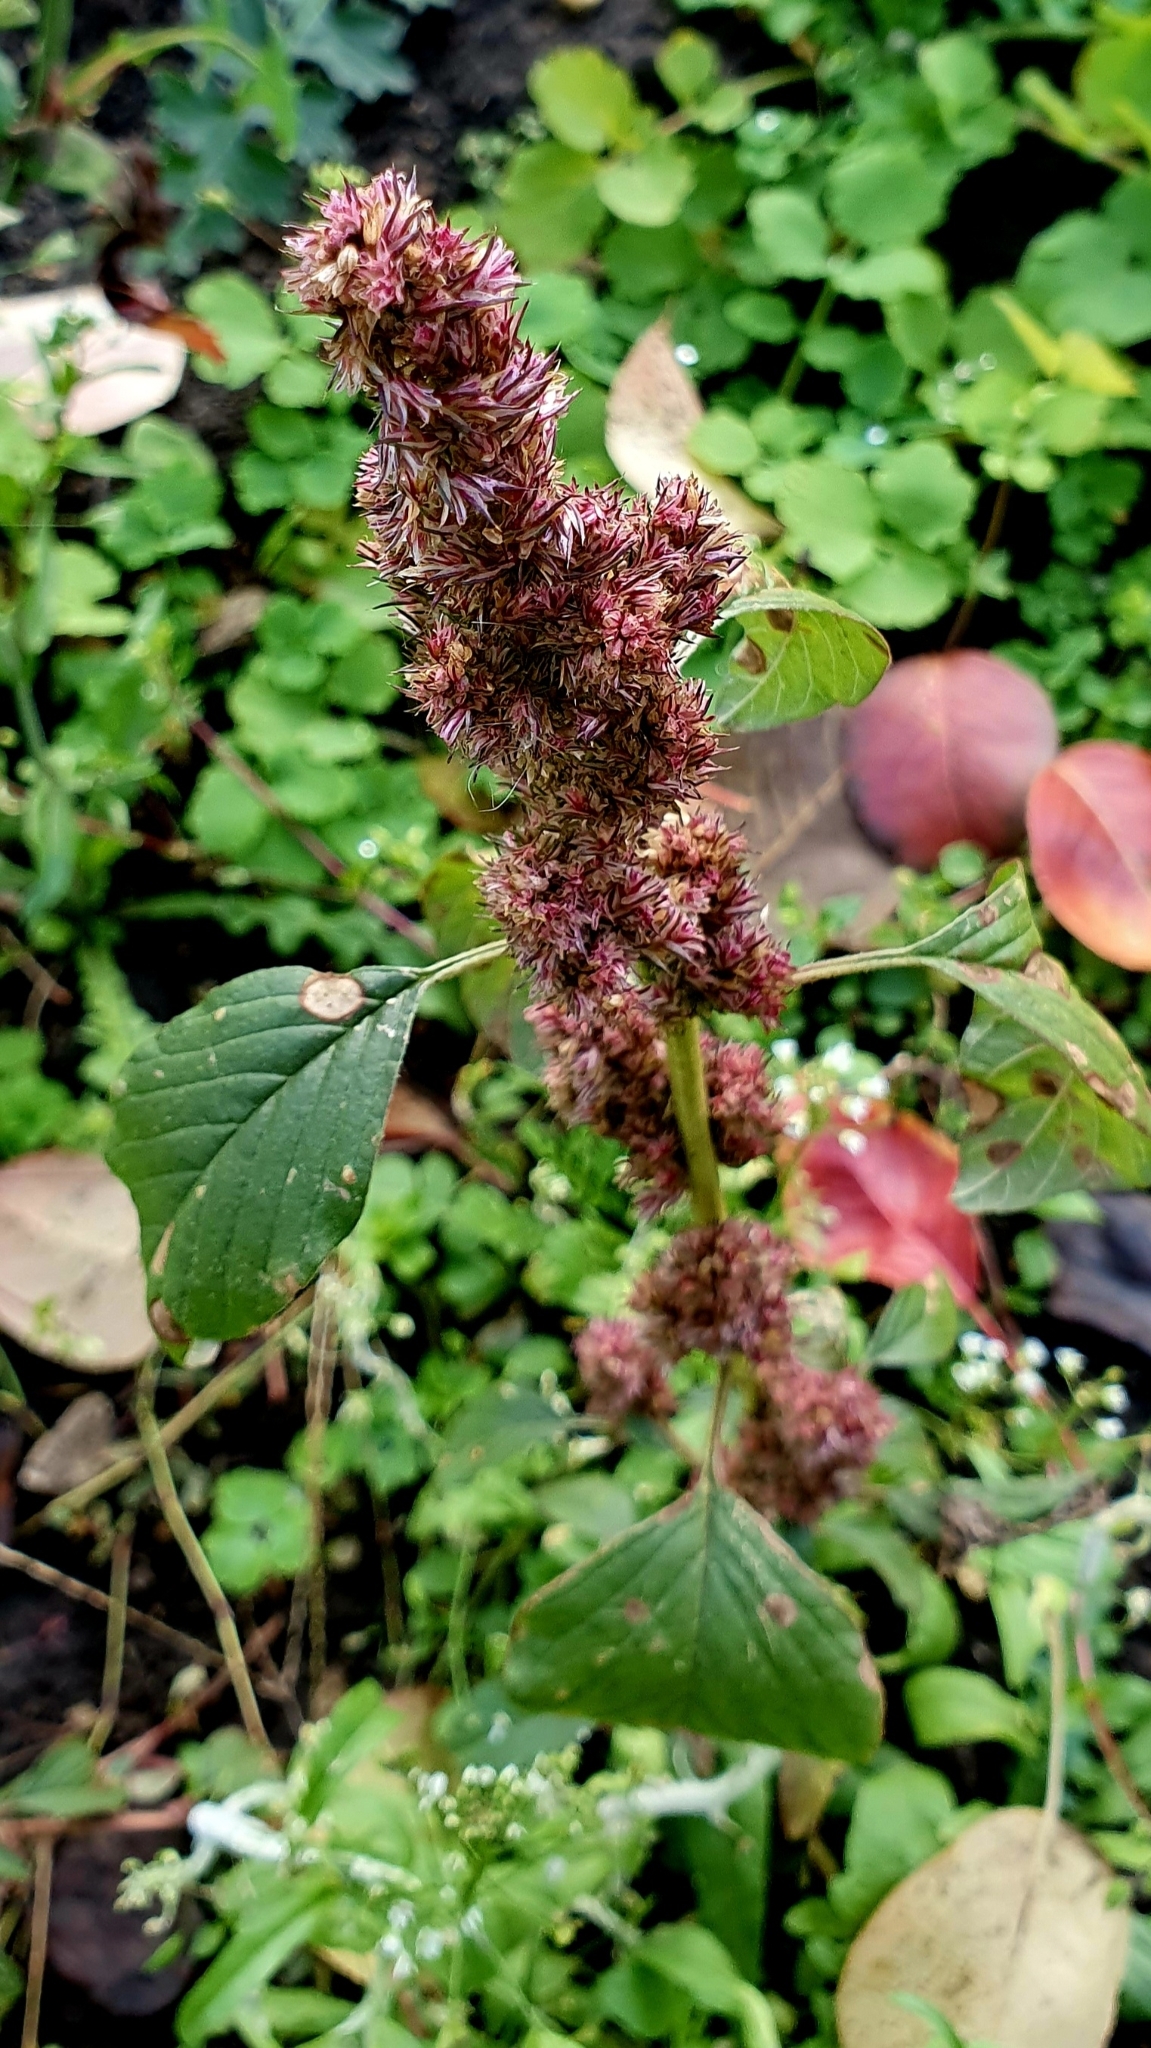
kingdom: Plantae
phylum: Tracheophyta
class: Magnoliopsida
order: Caryophyllales
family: Amaranthaceae
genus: Amaranthus
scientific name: Amaranthus retroflexus
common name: Redroot amaranth
